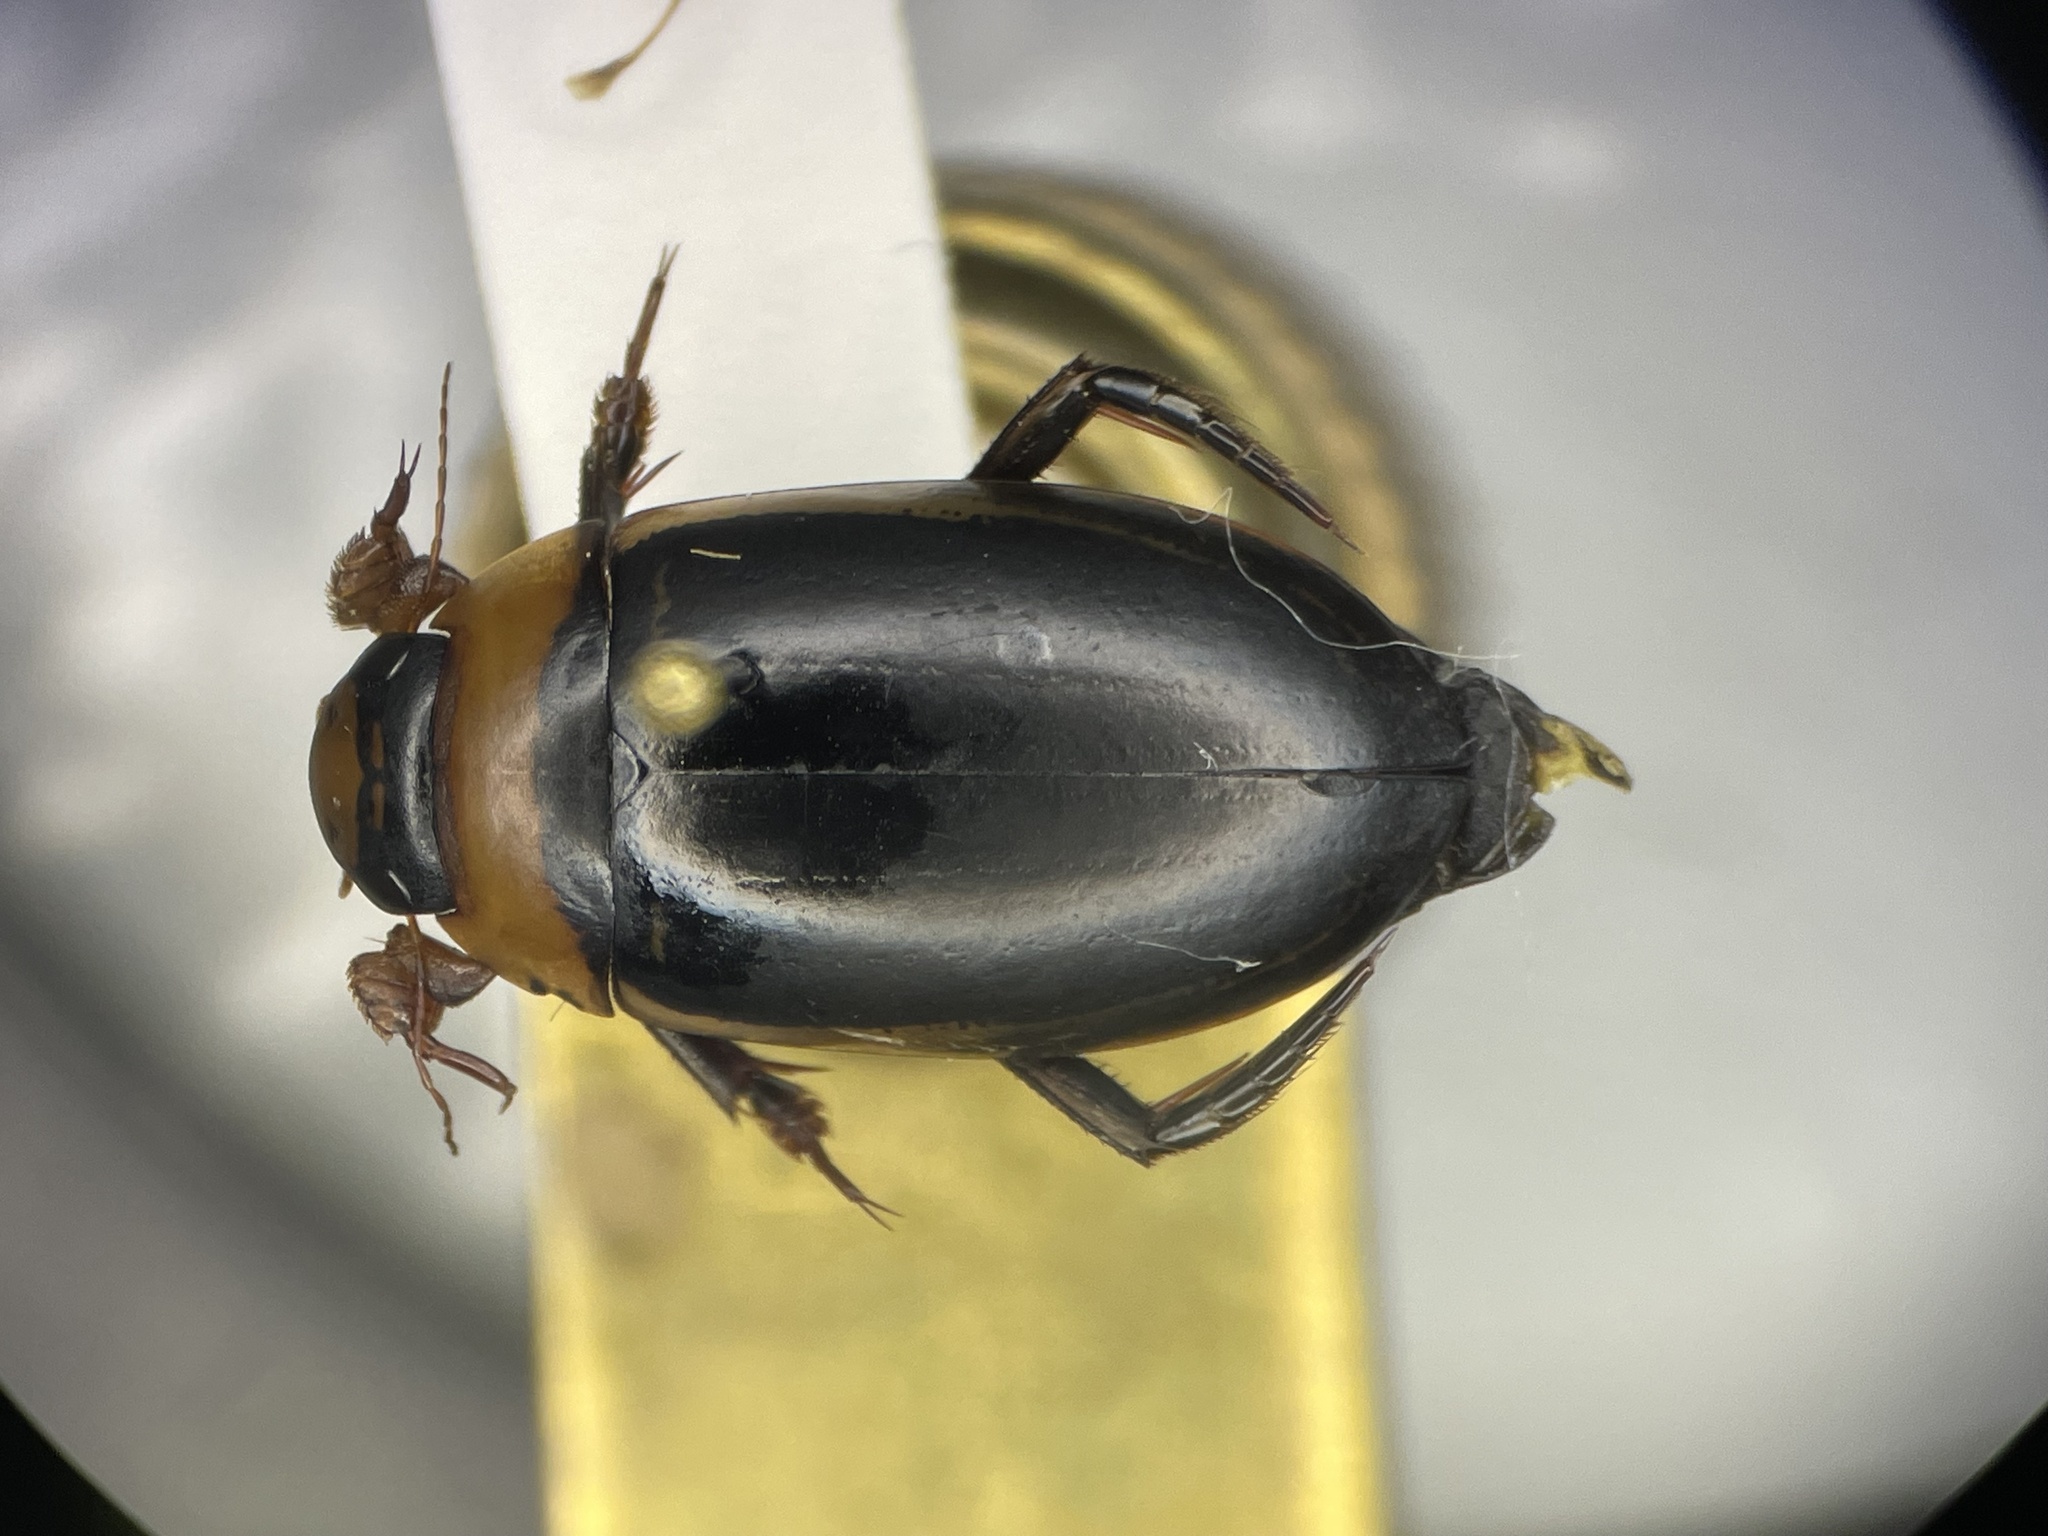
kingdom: Animalia
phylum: Arthropoda
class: Insecta
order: Coleoptera
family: Dytiscidae
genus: Hydaticus
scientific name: Hydaticus aruspex
